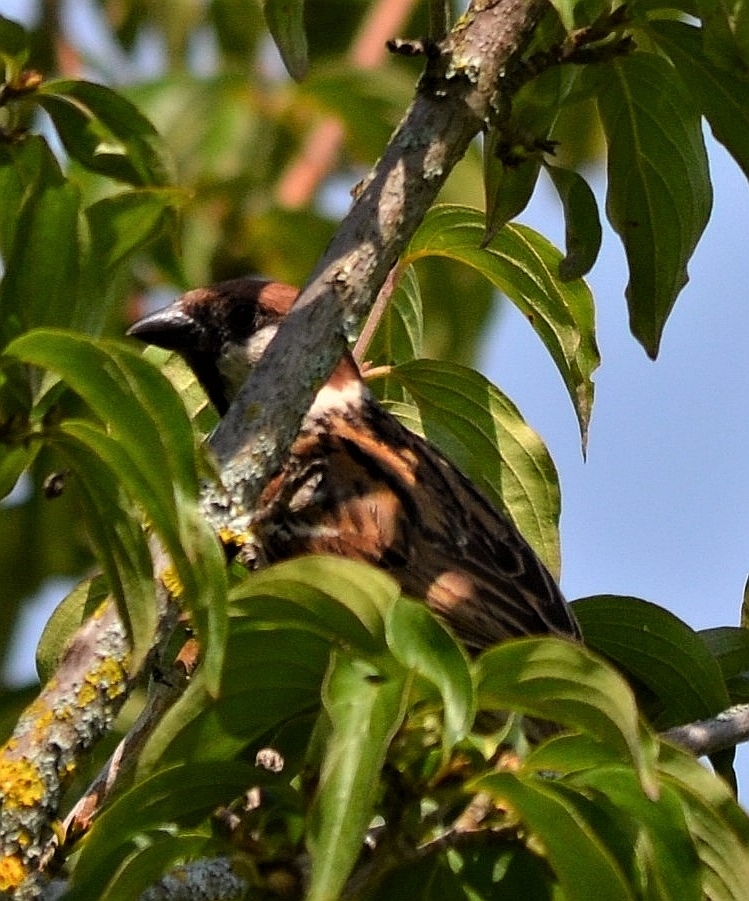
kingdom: Animalia
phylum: Chordata
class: Aves
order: Passeriformes
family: Passeridae
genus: Passer
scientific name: Passer montanus
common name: Eurasian tree sparrow
